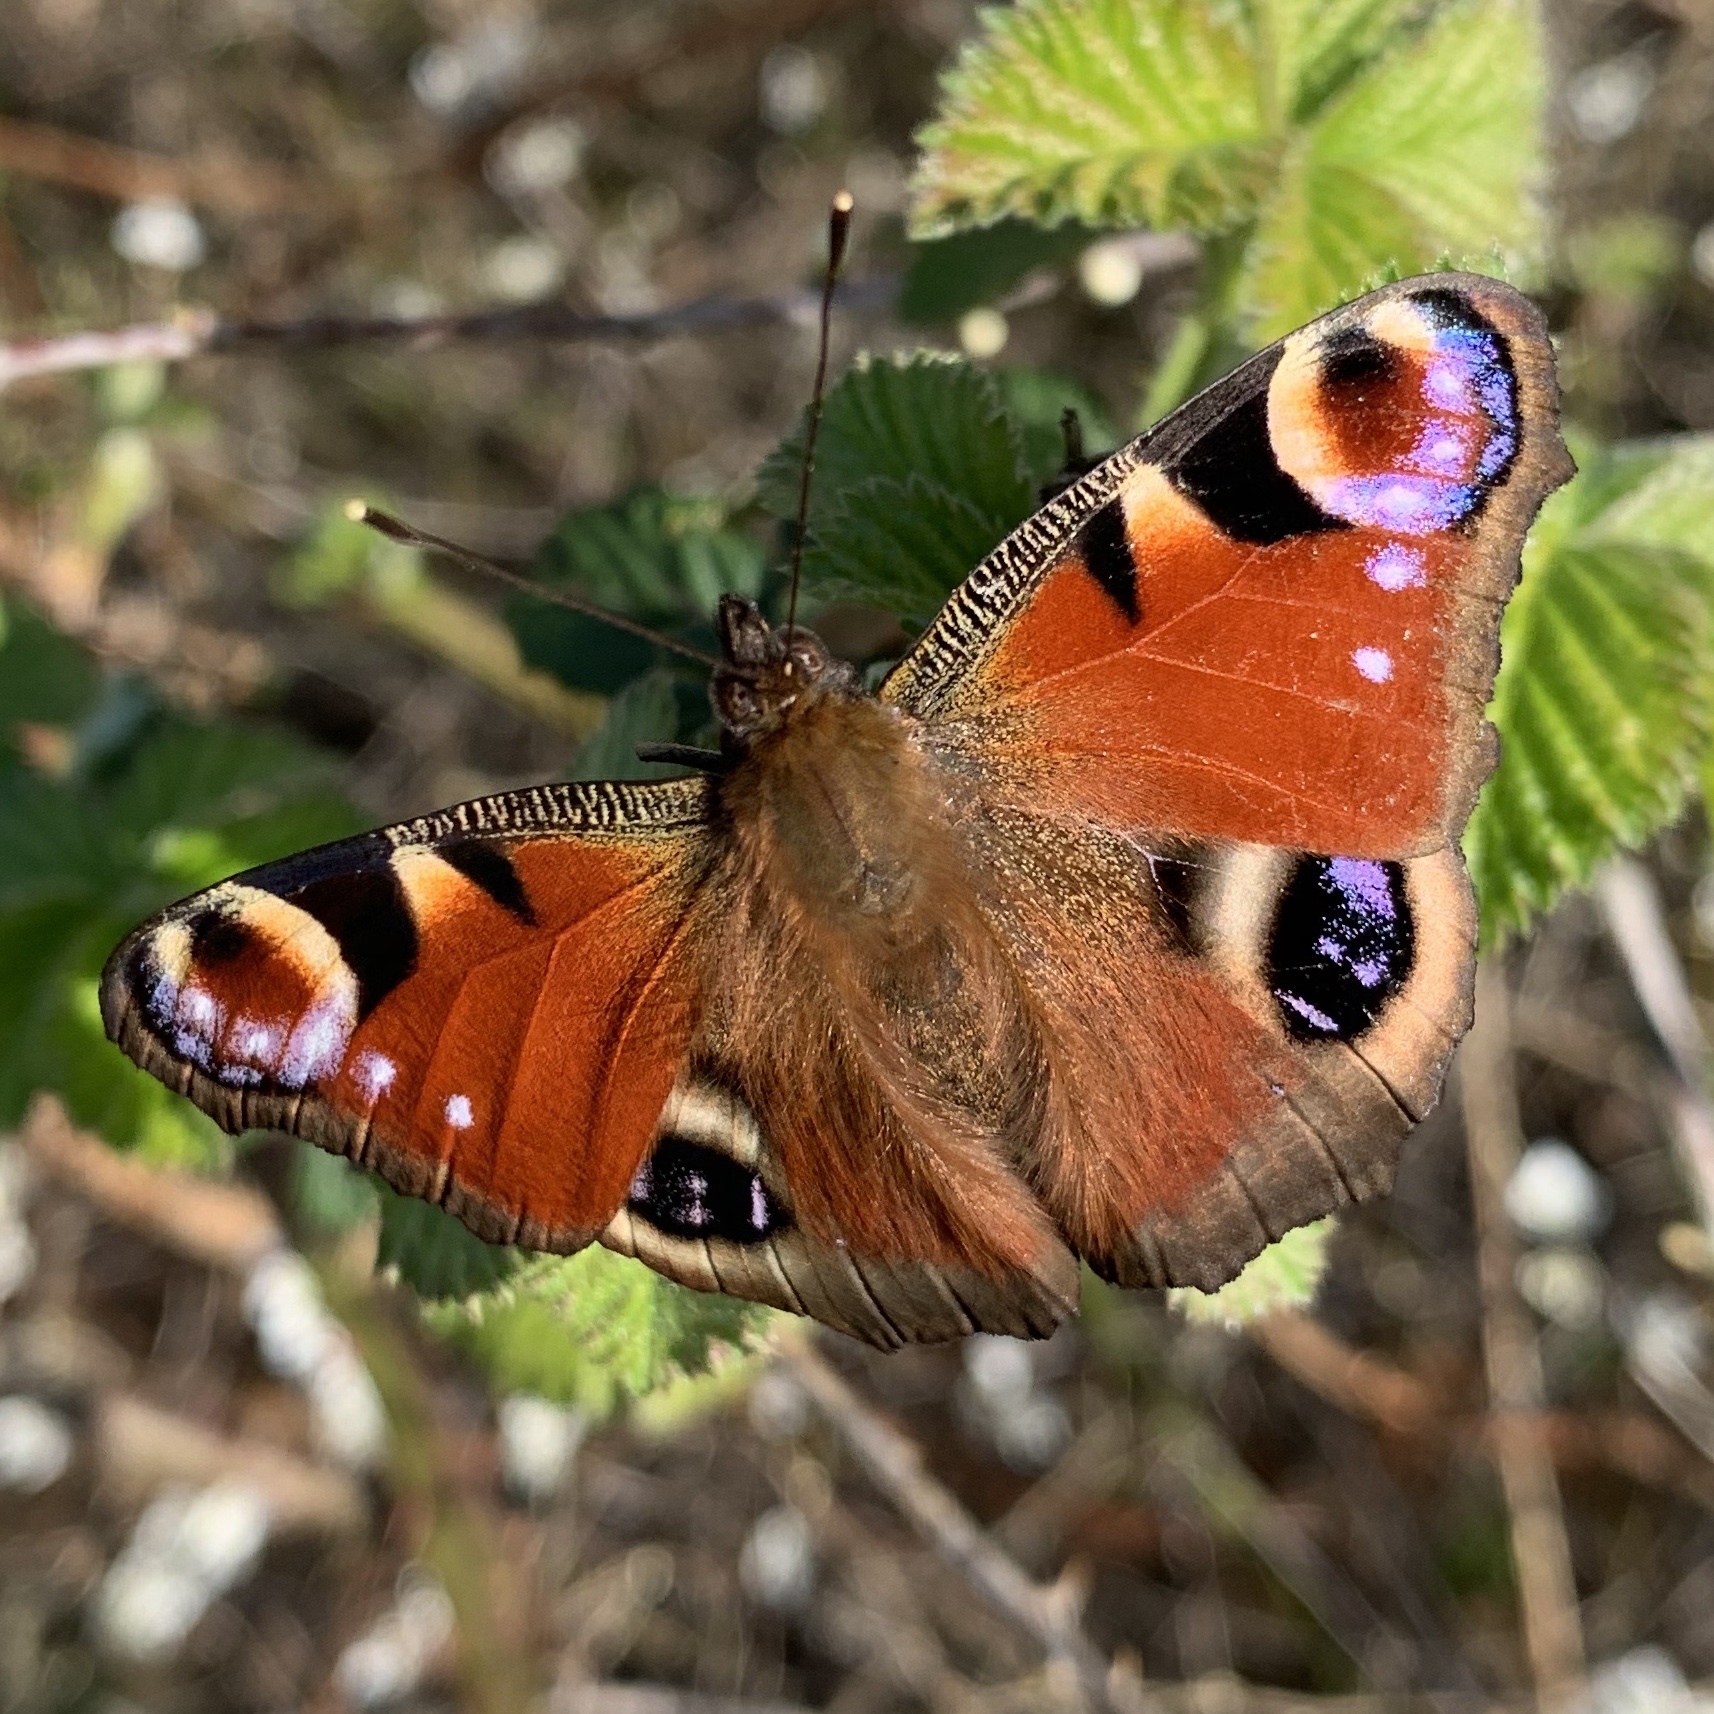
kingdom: Animalia
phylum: Arthropoda
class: Insecta
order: Lepidoptera
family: Nymphalidae
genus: Aglais
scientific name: Aglais io
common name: Peacock
